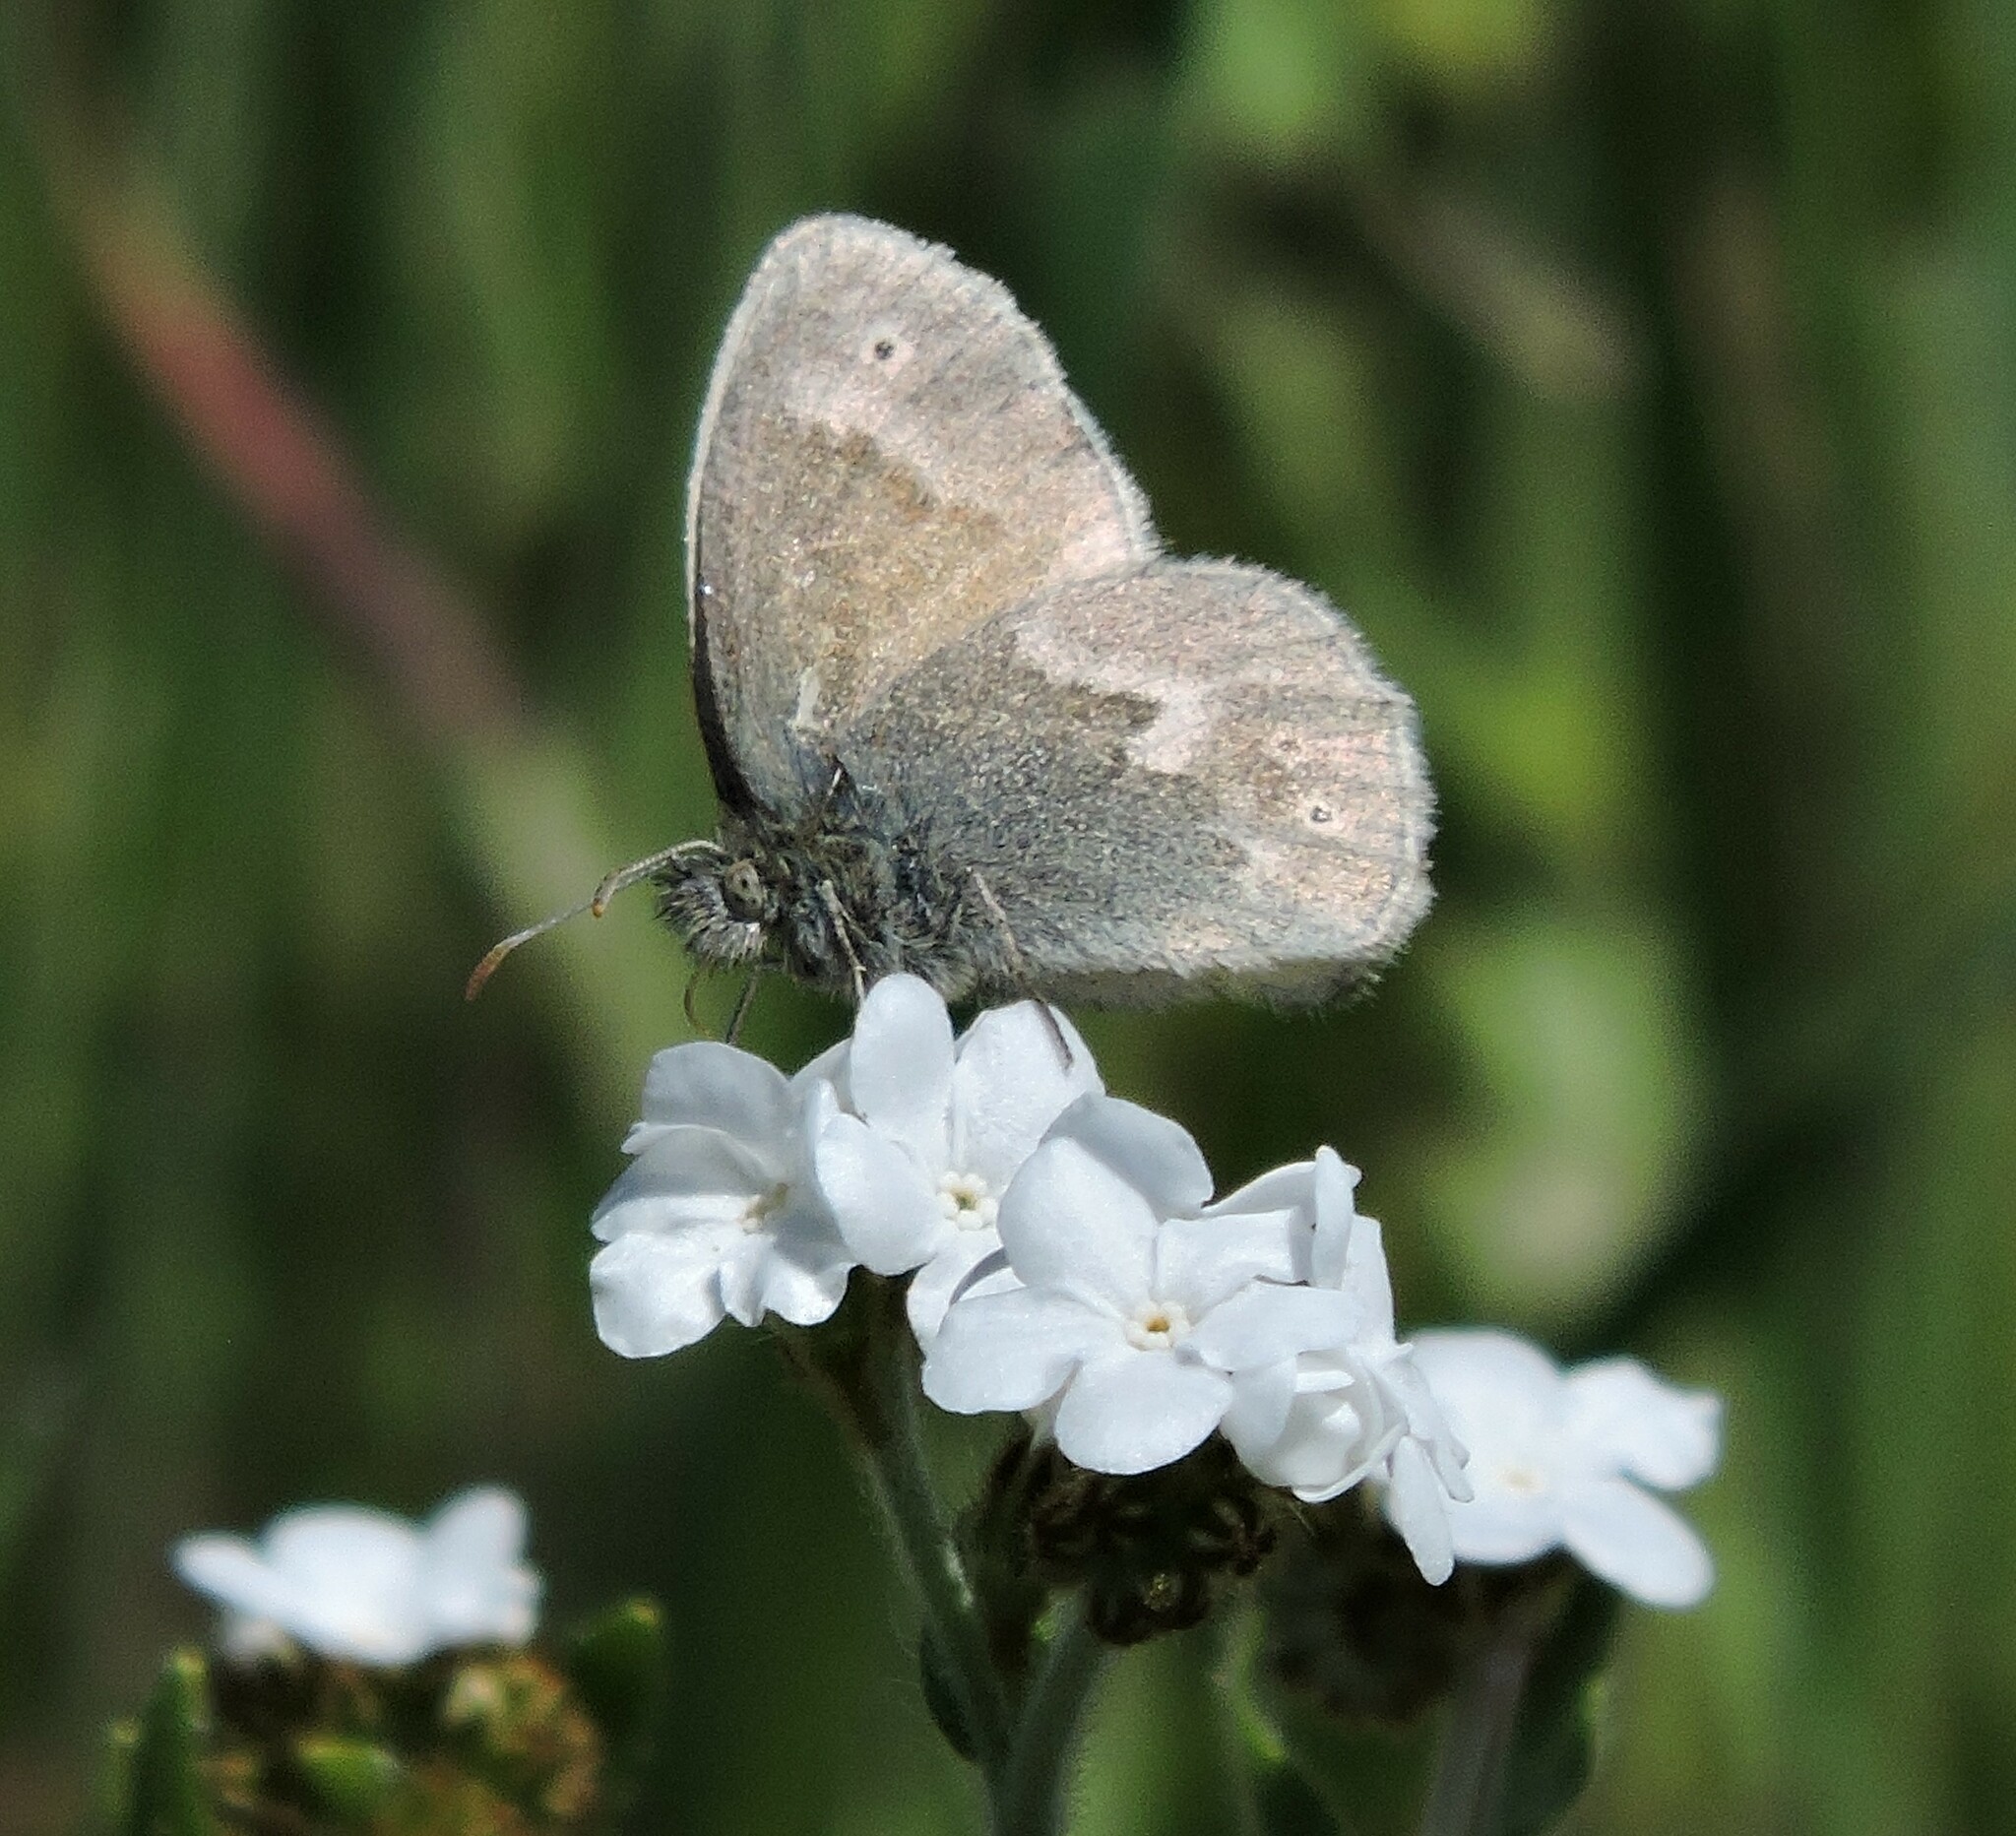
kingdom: Animalia
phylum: Arthropoda
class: Insecta
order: Lepidoptera
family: Nymphalidae
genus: Coenonympha
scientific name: Coenonympha california
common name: Common ringlet
